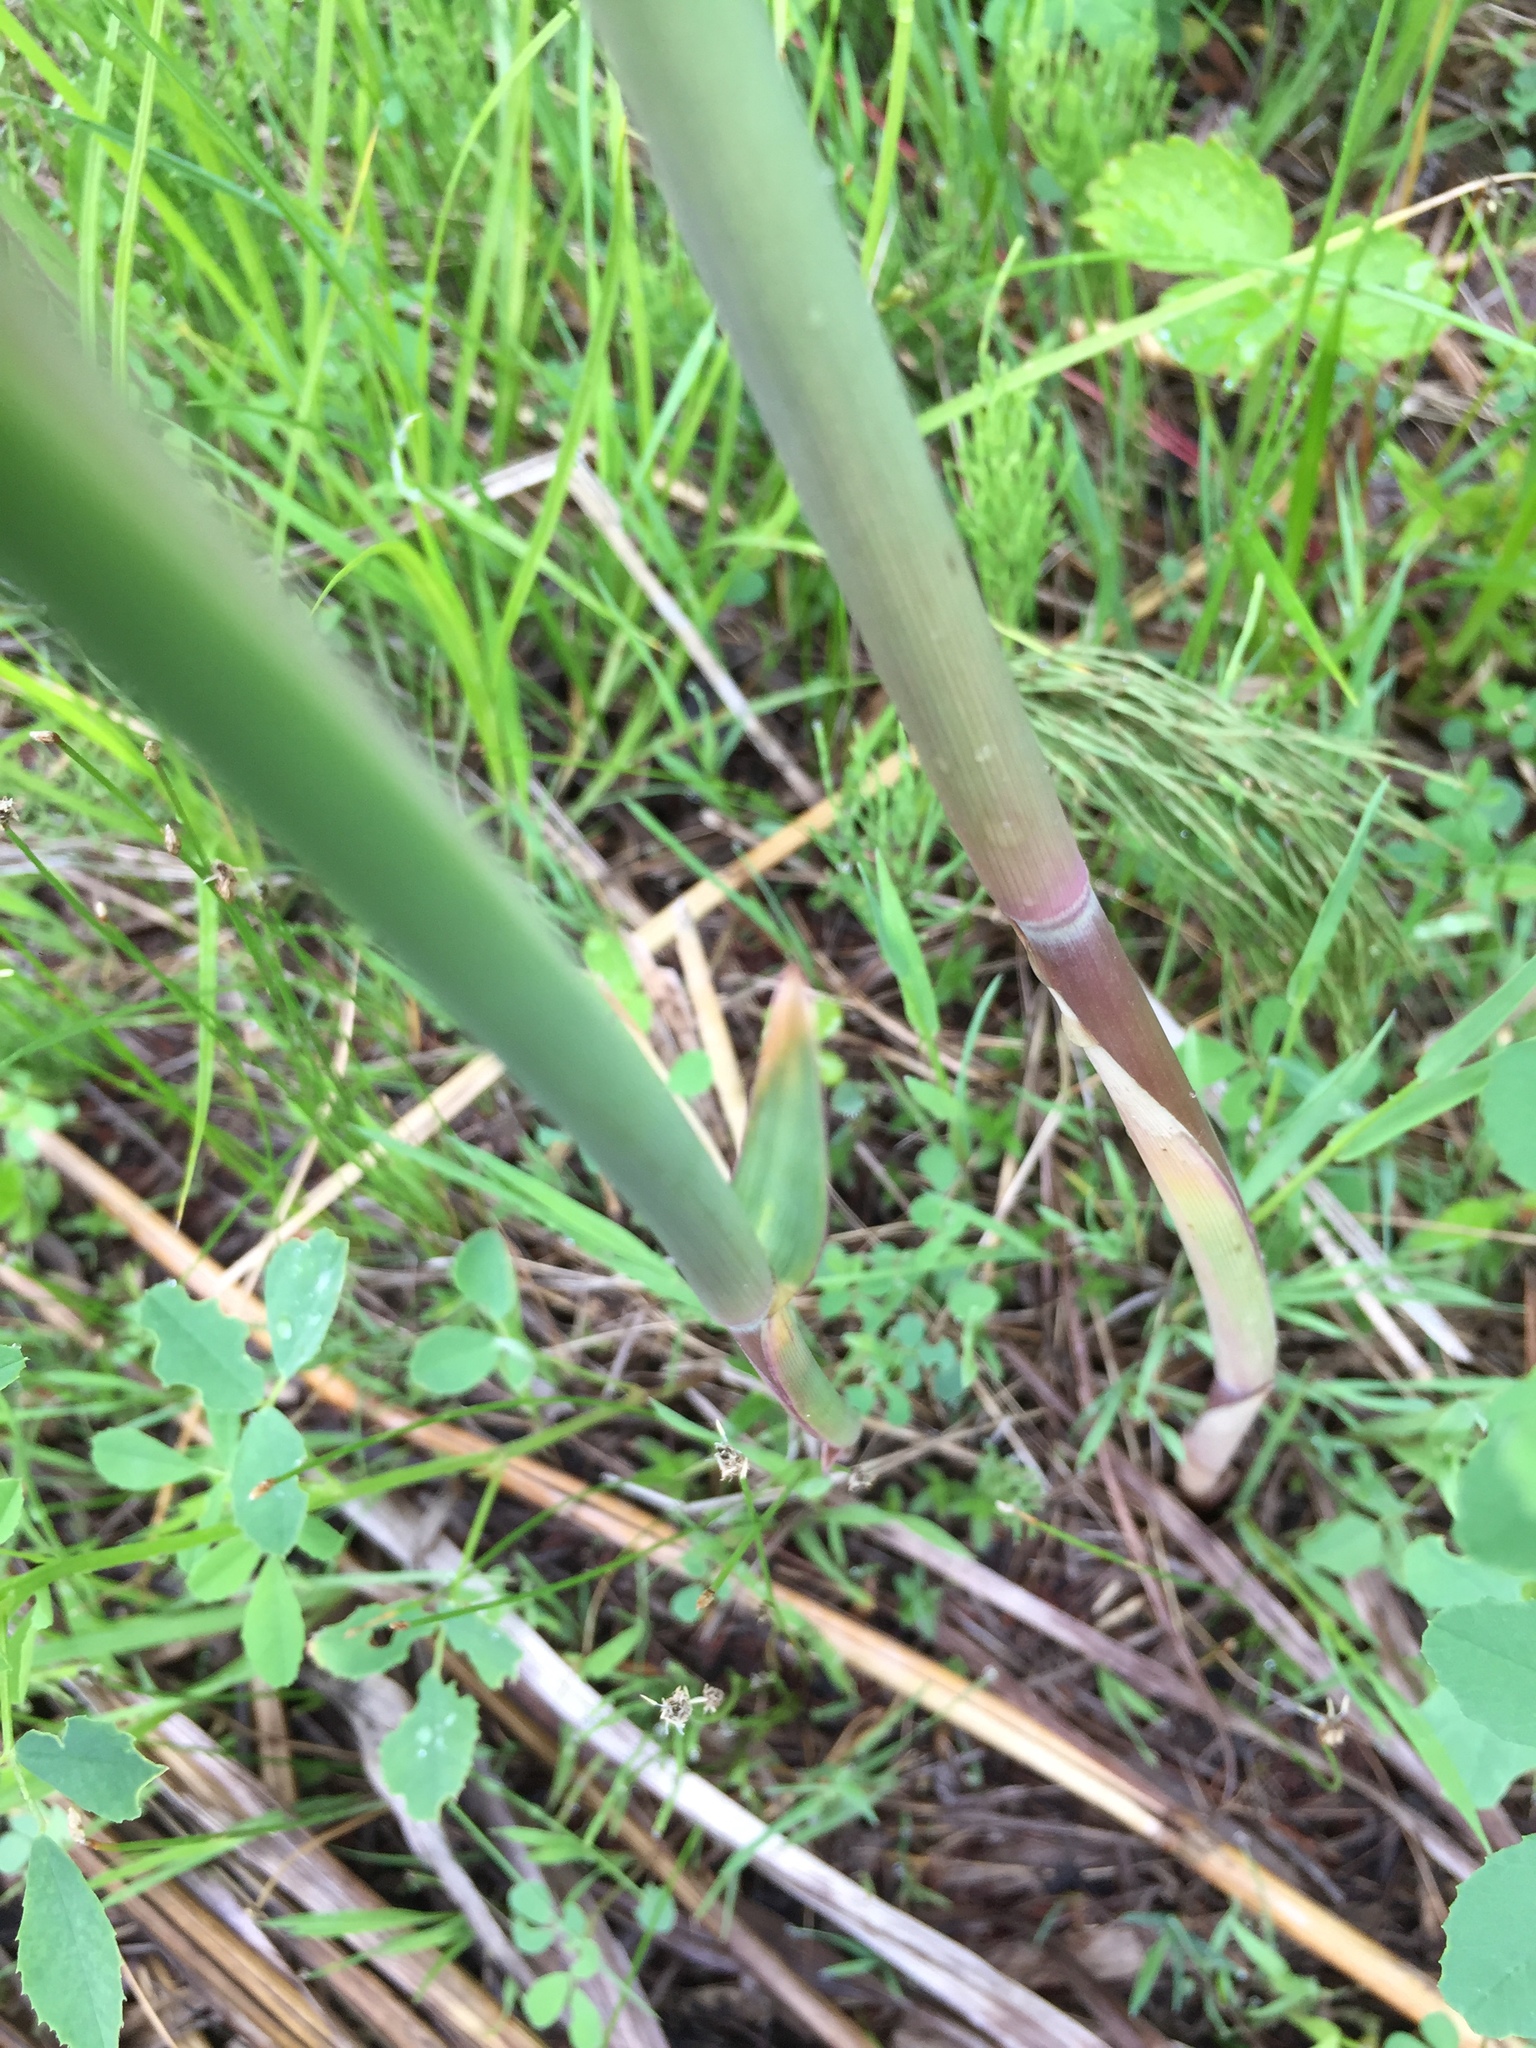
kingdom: Plantae
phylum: Tracheophyta
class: Liliopsida
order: Poales
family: Poaceae
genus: Phragmites
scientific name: Phragmites australis
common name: Common reed
